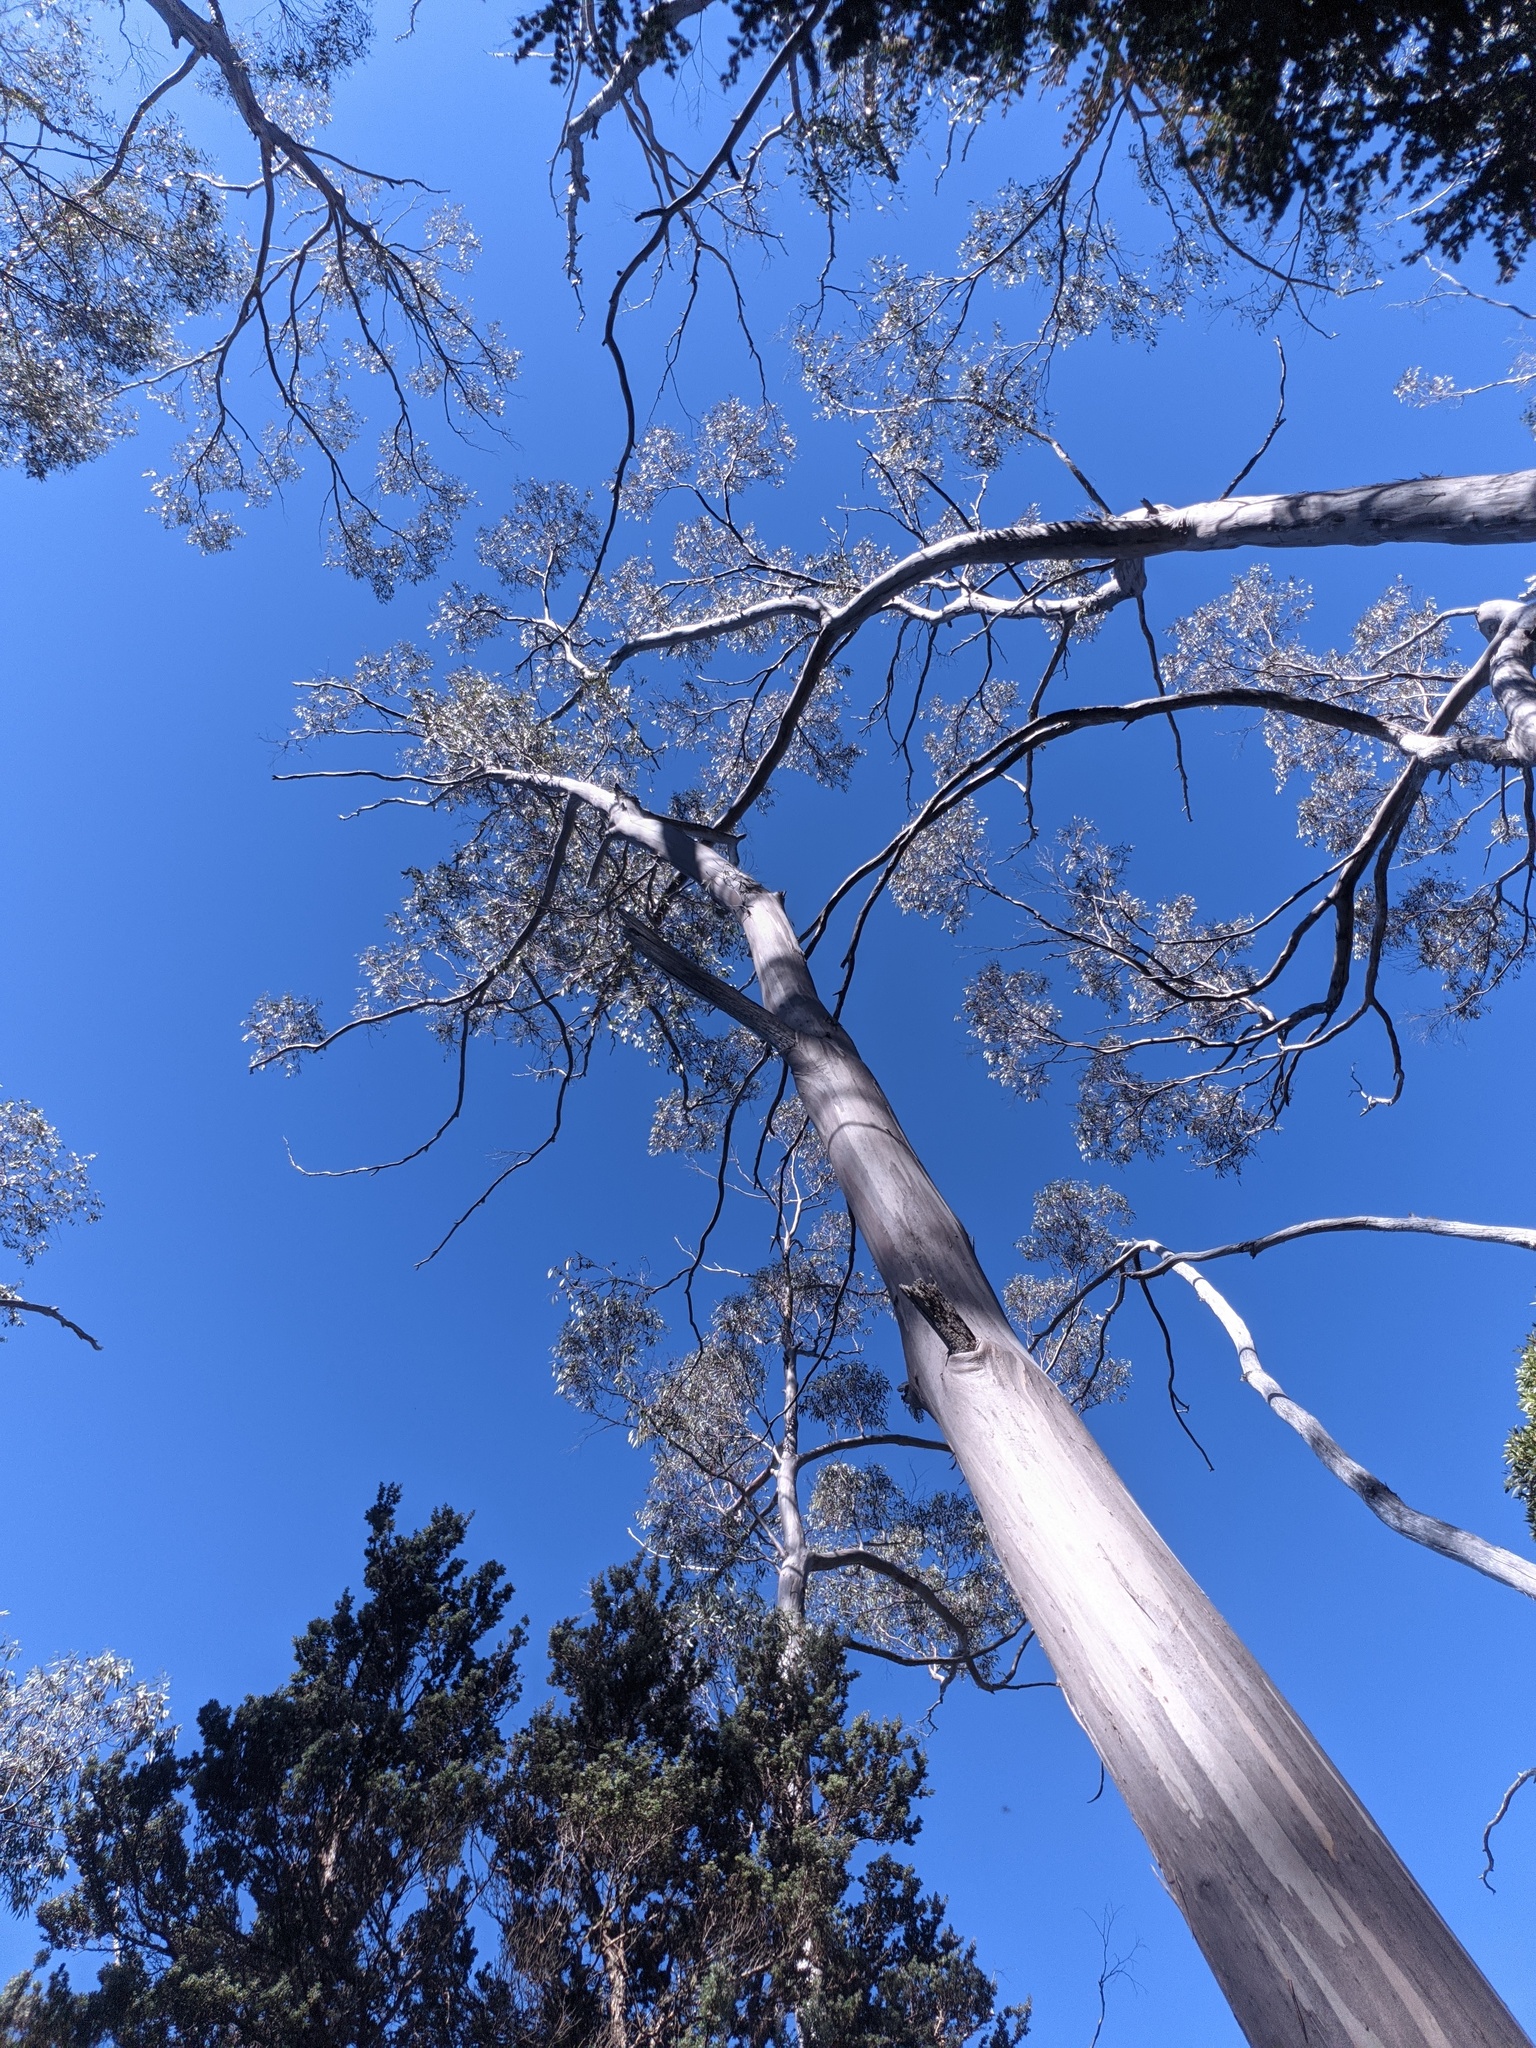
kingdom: Plantae
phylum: Tracheophyta
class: Magnoliopsida
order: Myrtales
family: Myrtaceae
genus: Eucalyptus
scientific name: Eucalyptus coccifera
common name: Tasmanian snow-gum
